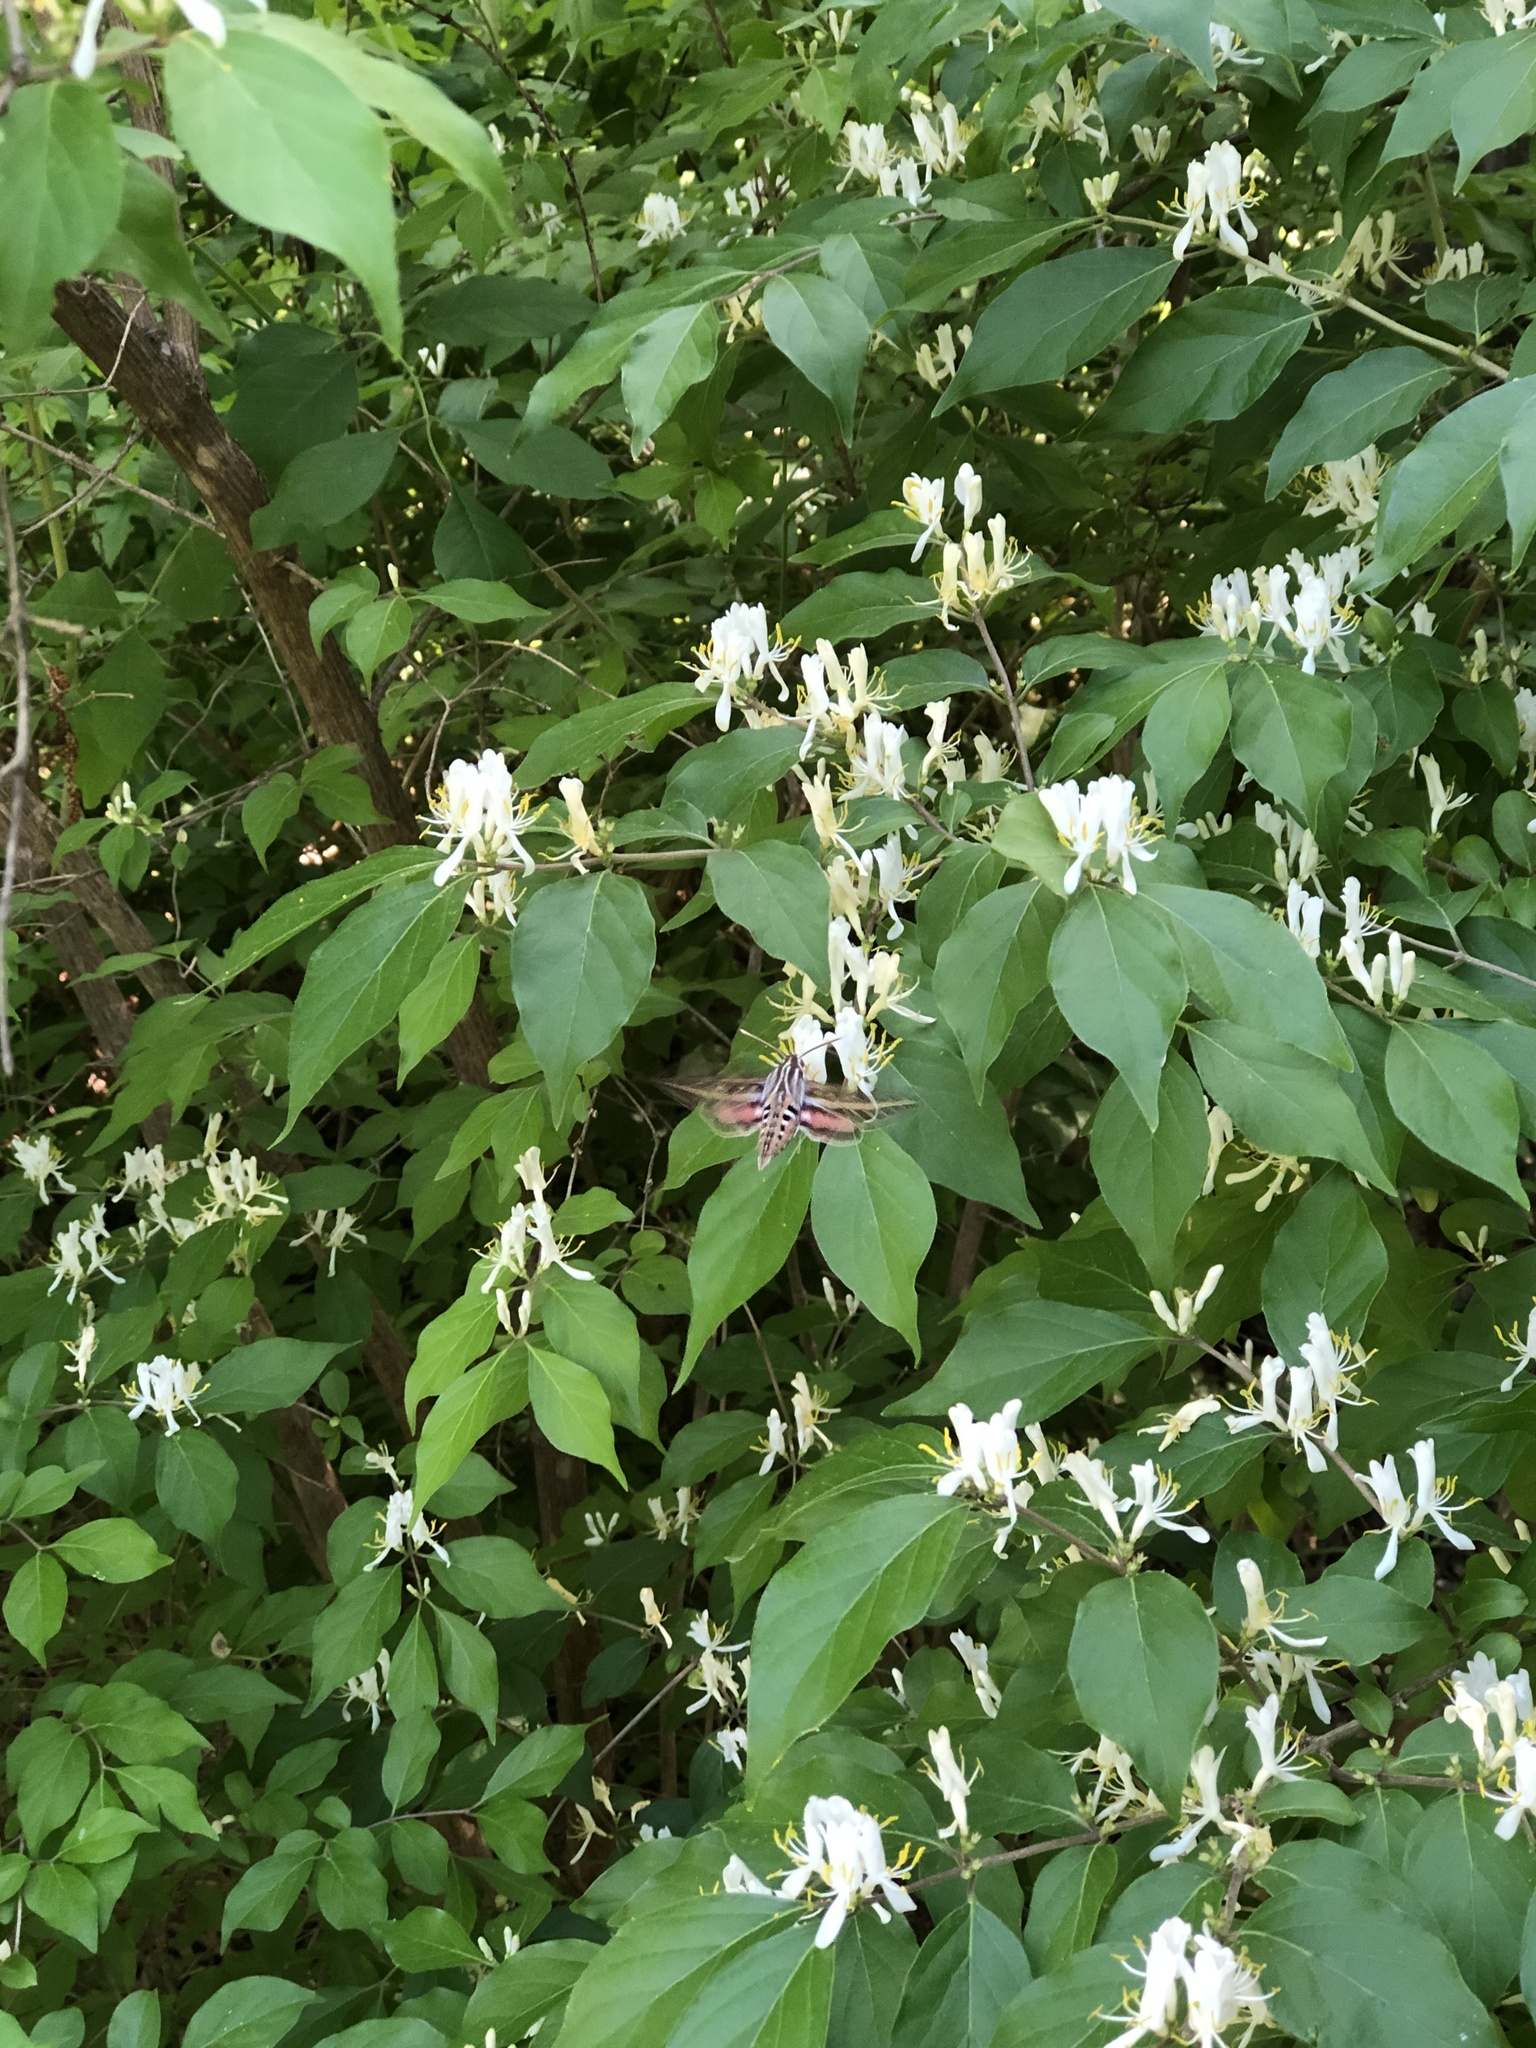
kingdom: Animalia
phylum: Arthropoda
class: Insecta
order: Lepidoptera
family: Sphingidae
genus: Hyles
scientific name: Hyles lineata
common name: White-lined sphinx
